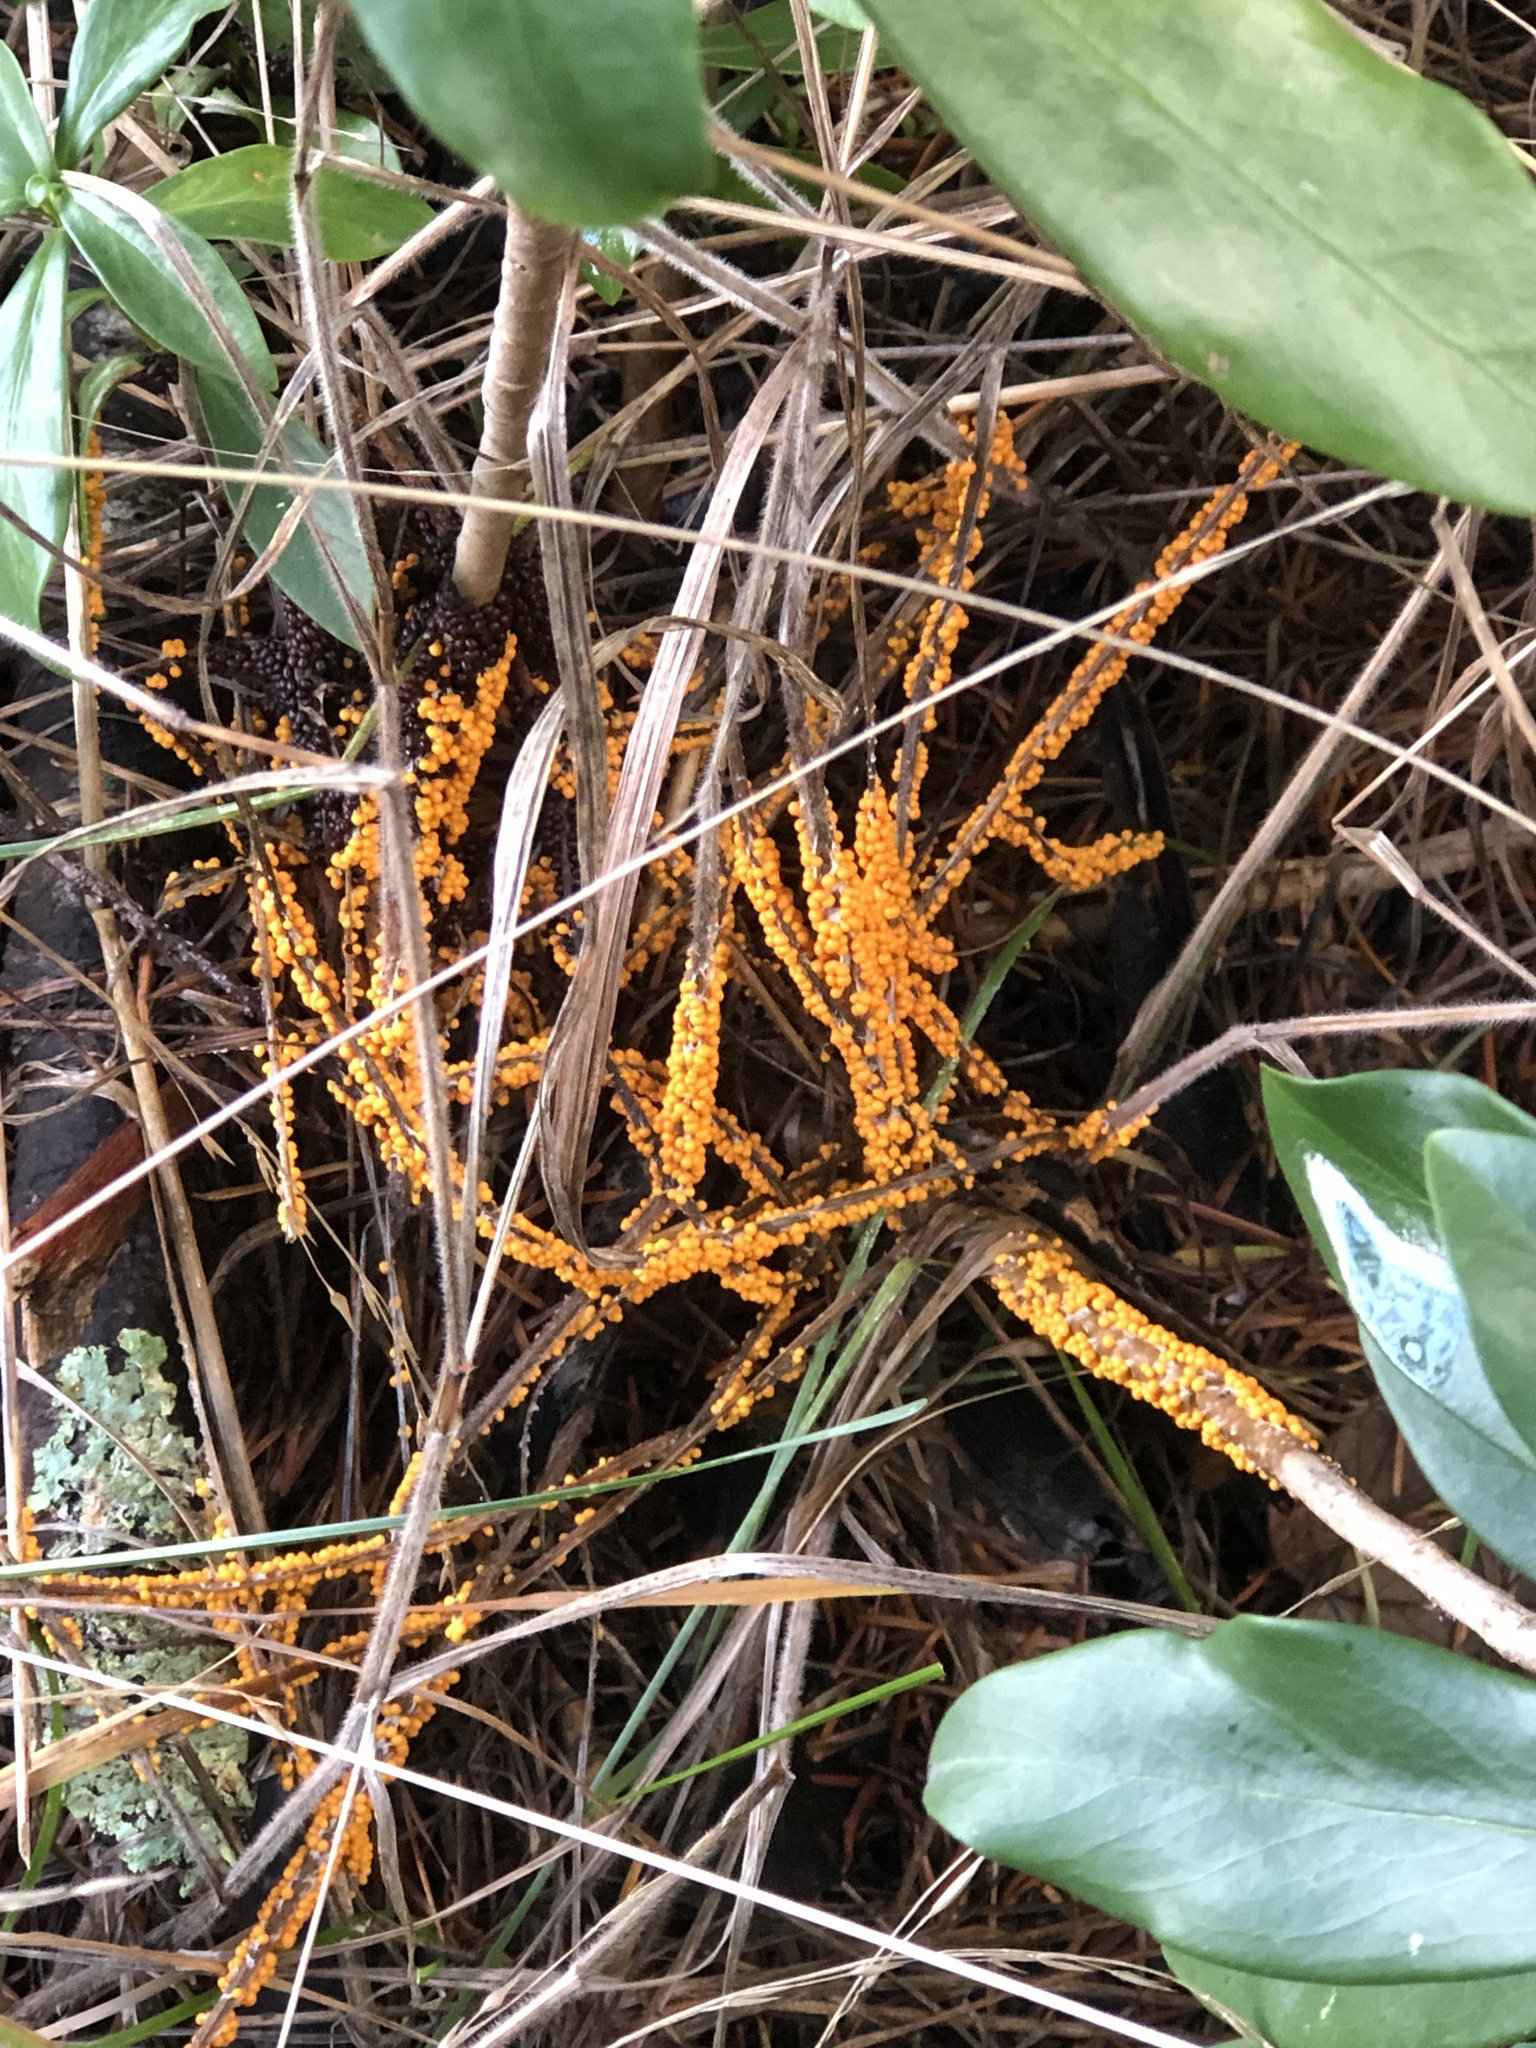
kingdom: Protozoa
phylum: Mycetozoa
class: Myxomycetes
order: Physarales
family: Physaraceae
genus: Leocarpus
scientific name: Leocarpus fragilis
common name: Insect-egg slime
